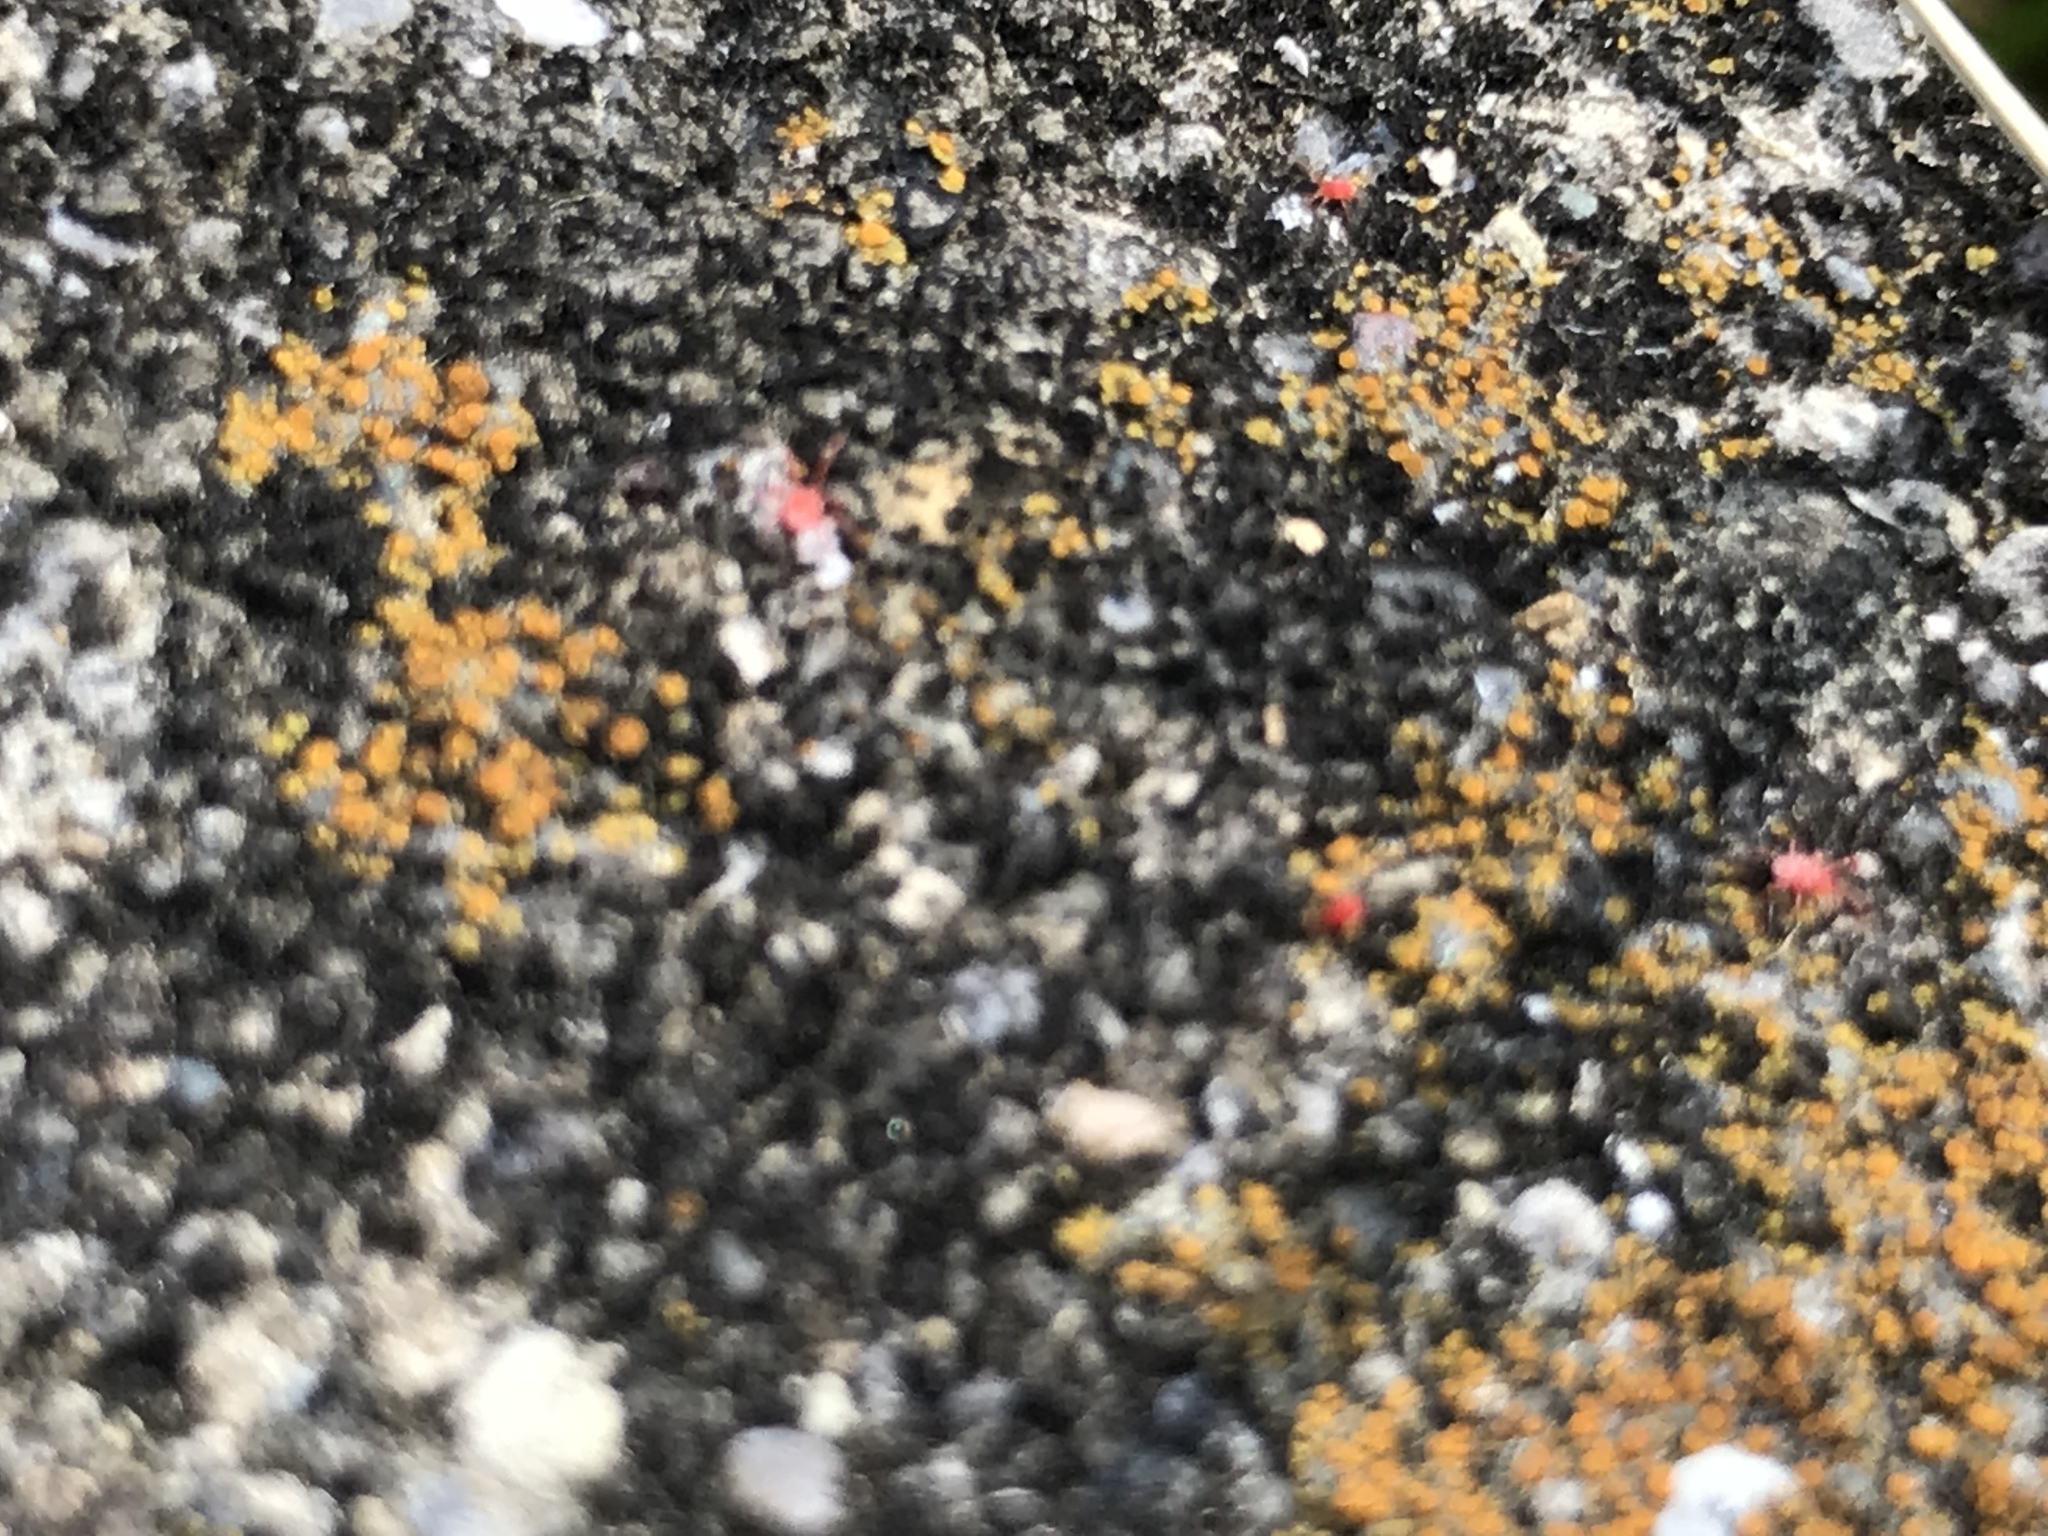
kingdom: Animalia
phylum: Arthropoda
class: Arachnida
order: Trombidiformes
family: Erythraeidae
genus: Balaustium
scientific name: Balaustium
